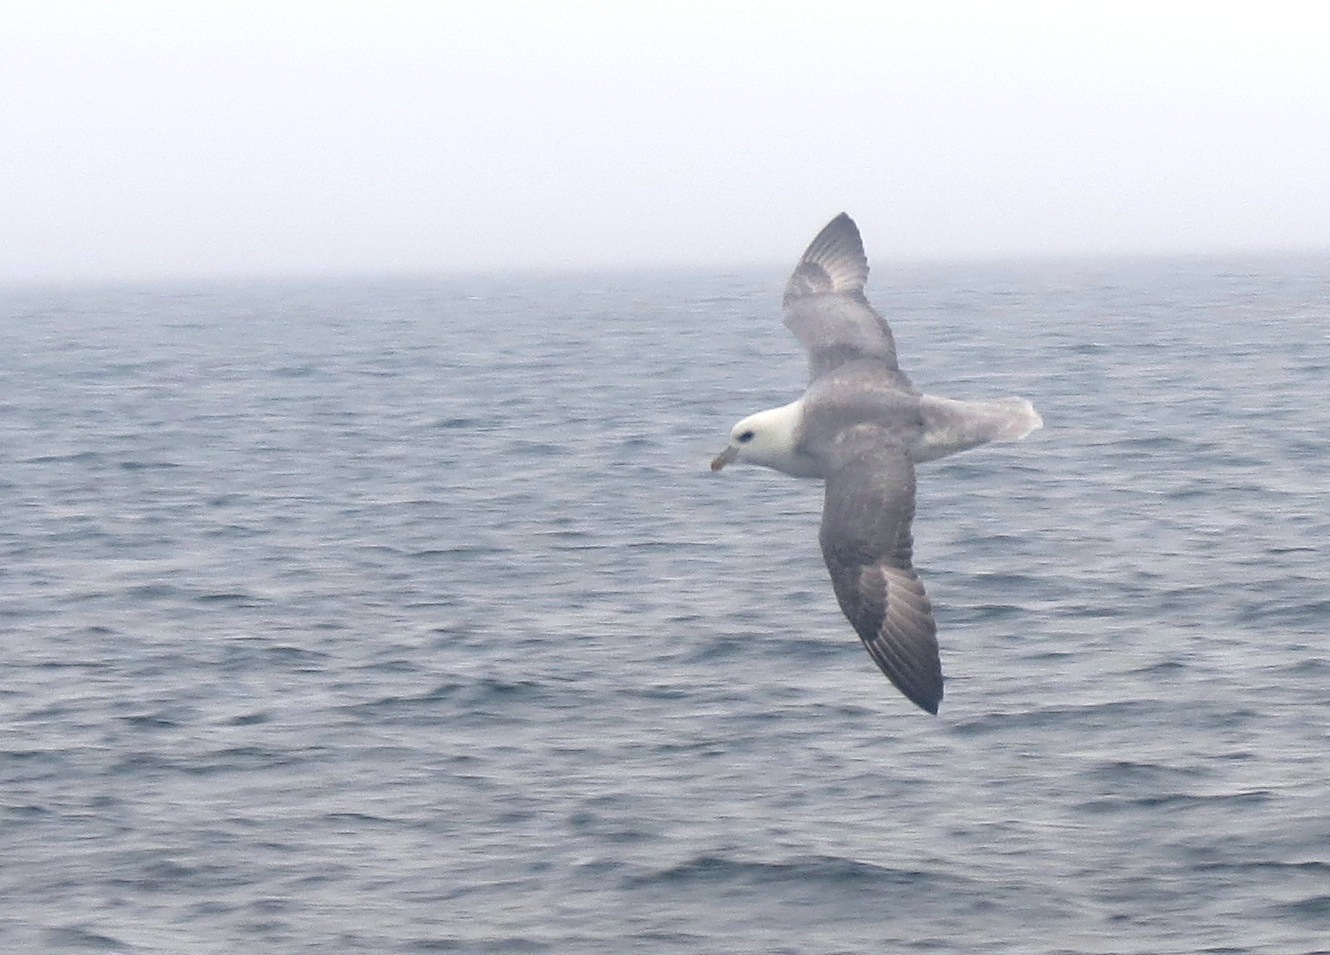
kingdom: Animalia
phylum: Chordata
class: Aves
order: Procellariiformes
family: Procellariidae
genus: Fulmarus
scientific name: Fulmarus glacialis
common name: Northern fulmar
